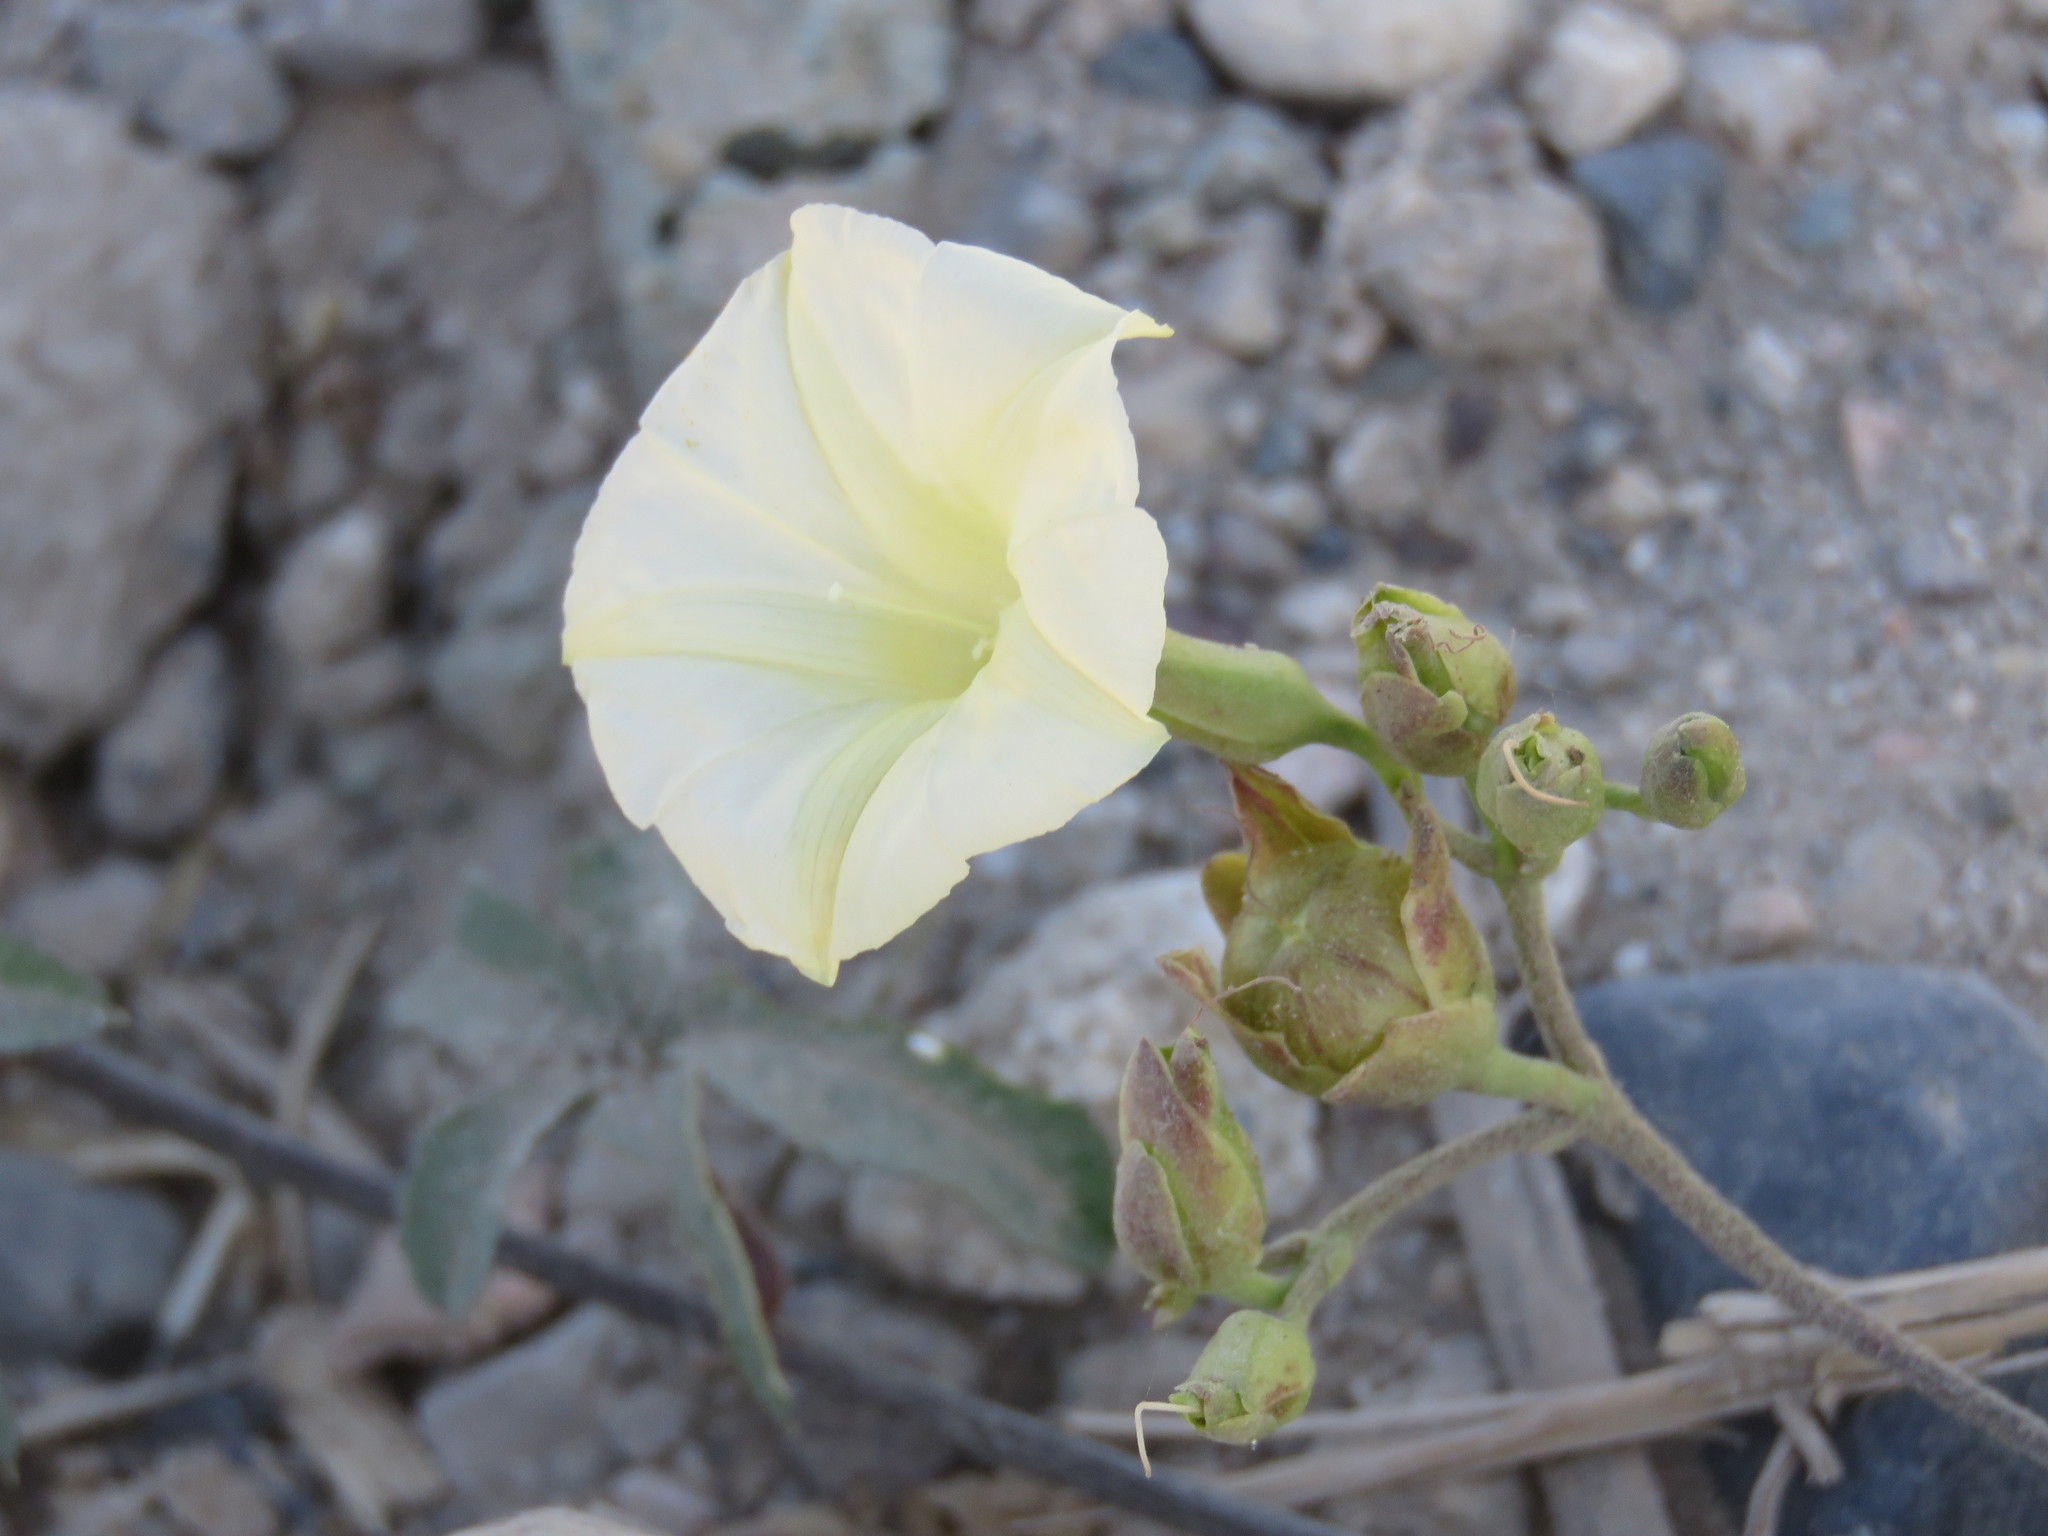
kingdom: Plantae
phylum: Tracheophyta
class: Magnoliopsida
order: Solanales
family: Convolvulaceae
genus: Distimake
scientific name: Distimake quinquefolius
